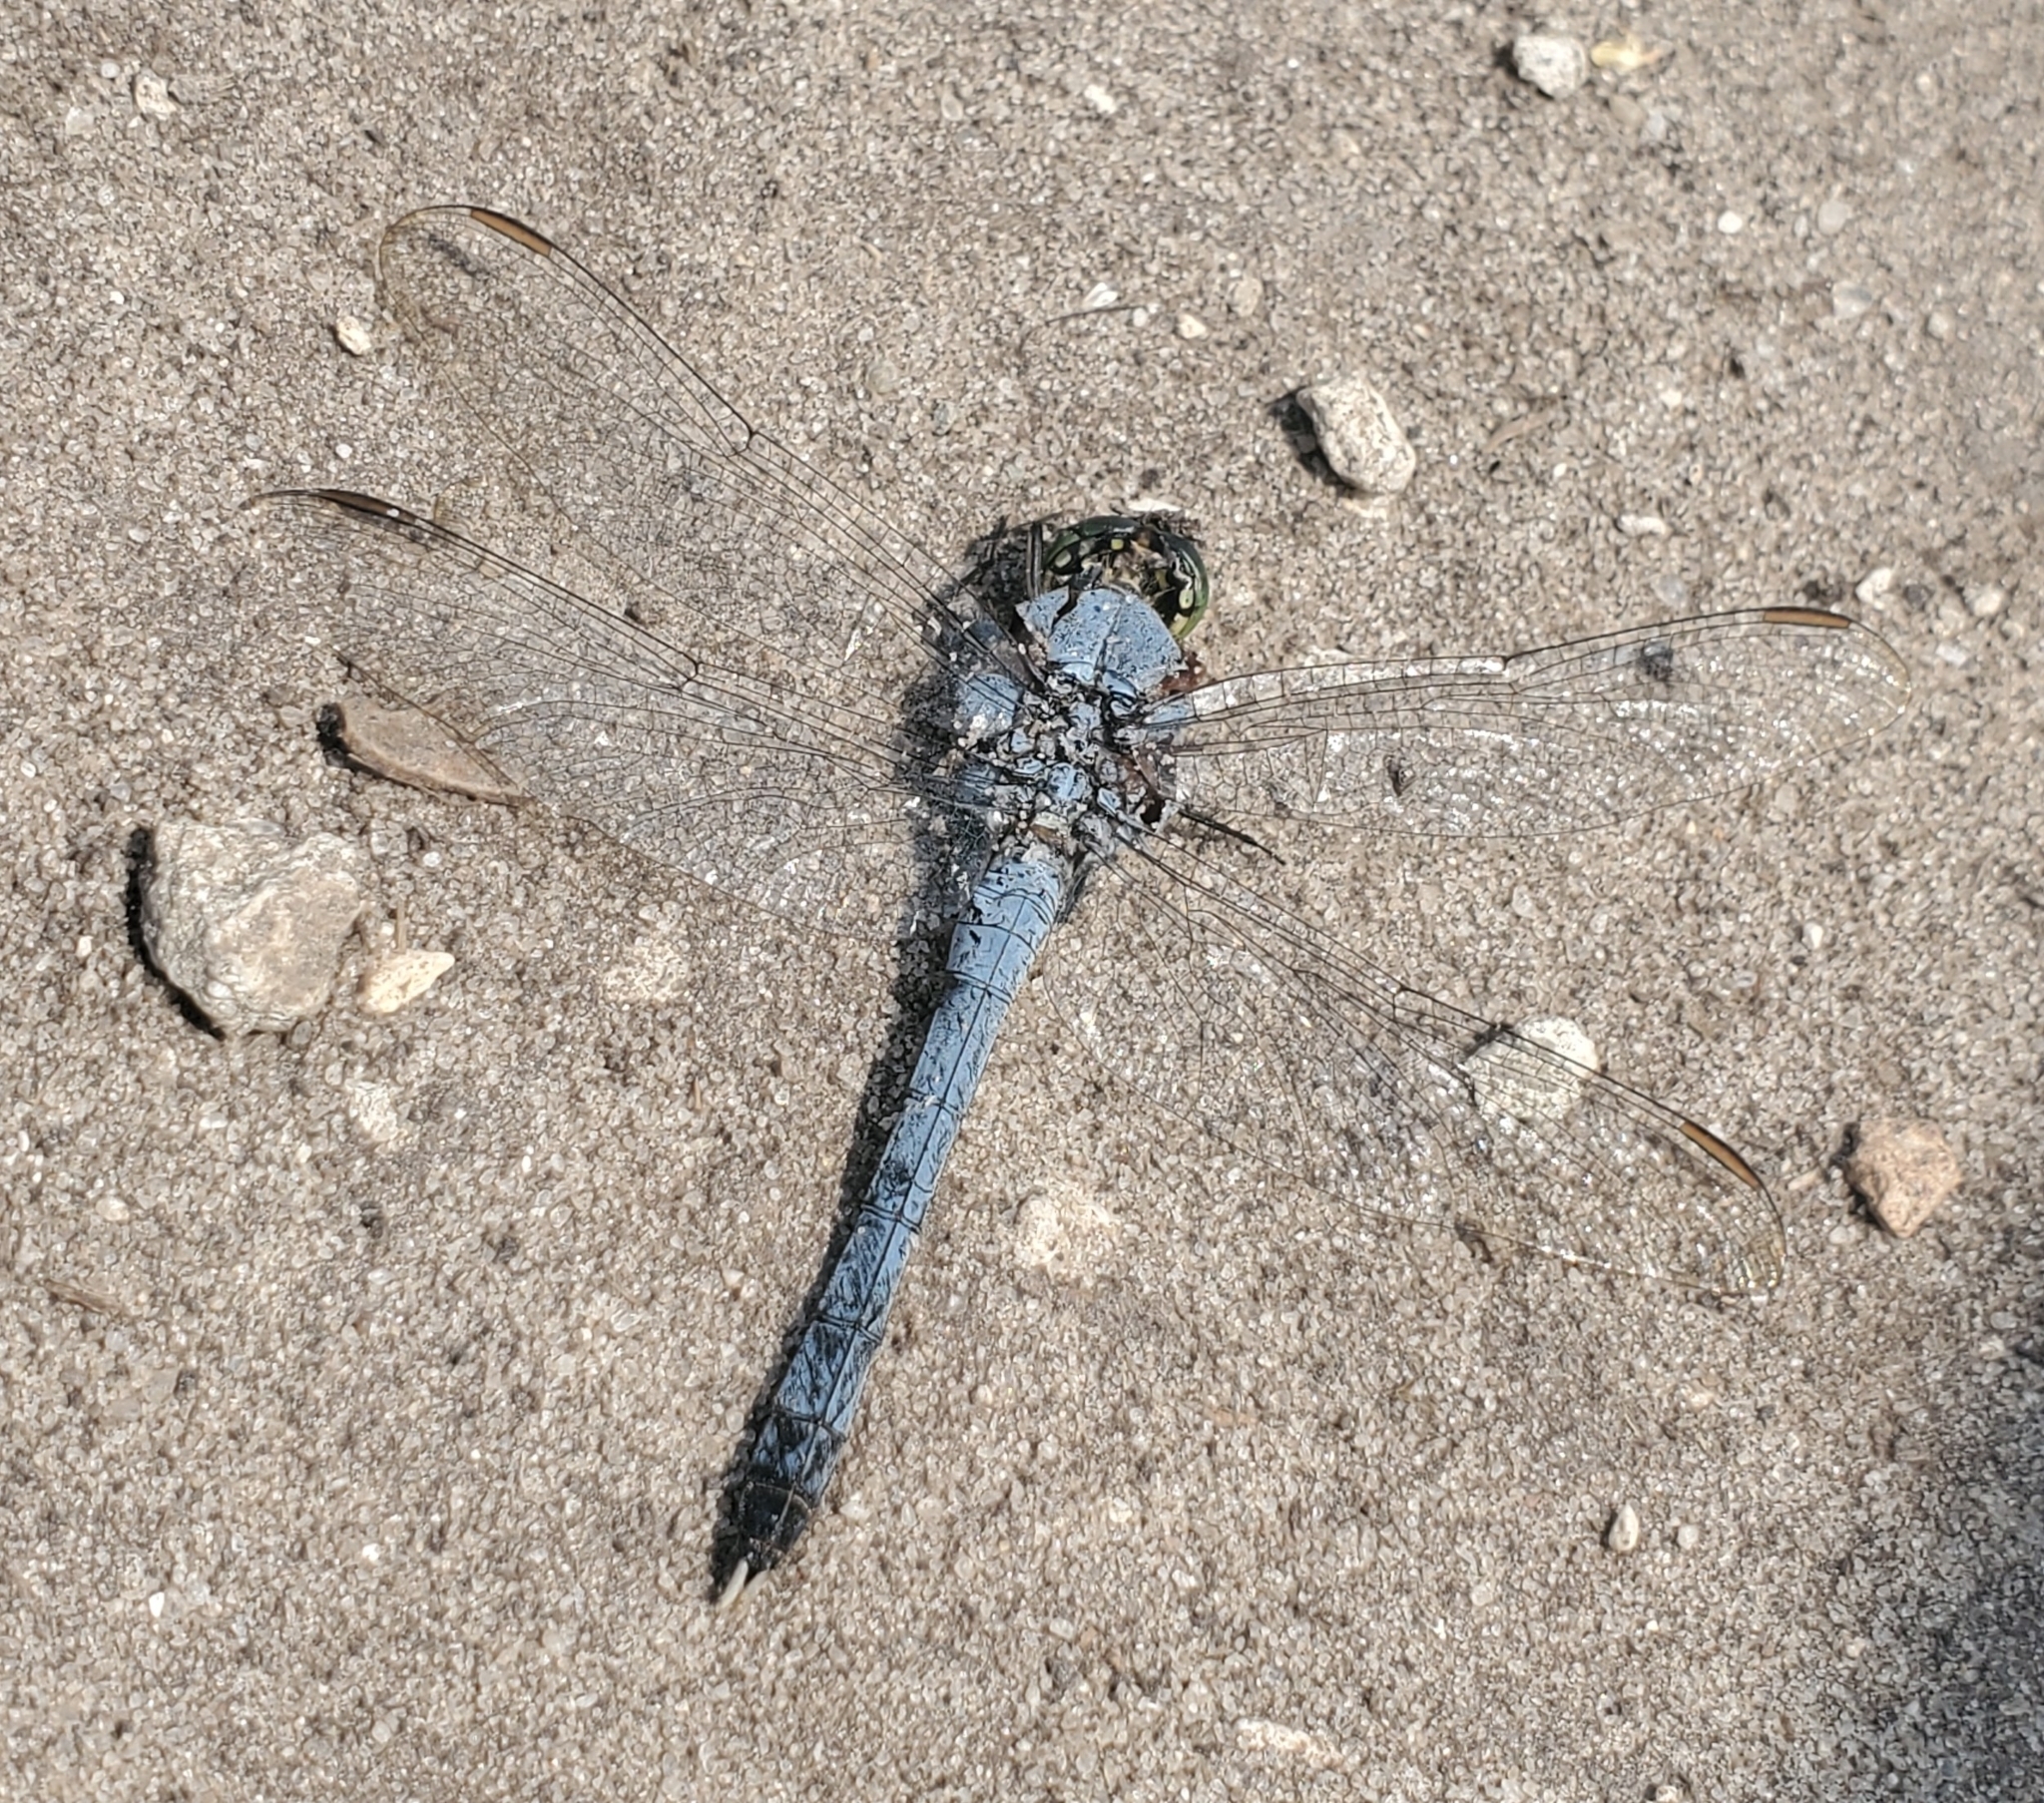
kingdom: Animalia
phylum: Arthropoda
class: Insecta
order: Odonata
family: Libellulidae
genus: Erythemis
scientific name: Erythemis simplicicollis
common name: Eastern pondhawk
